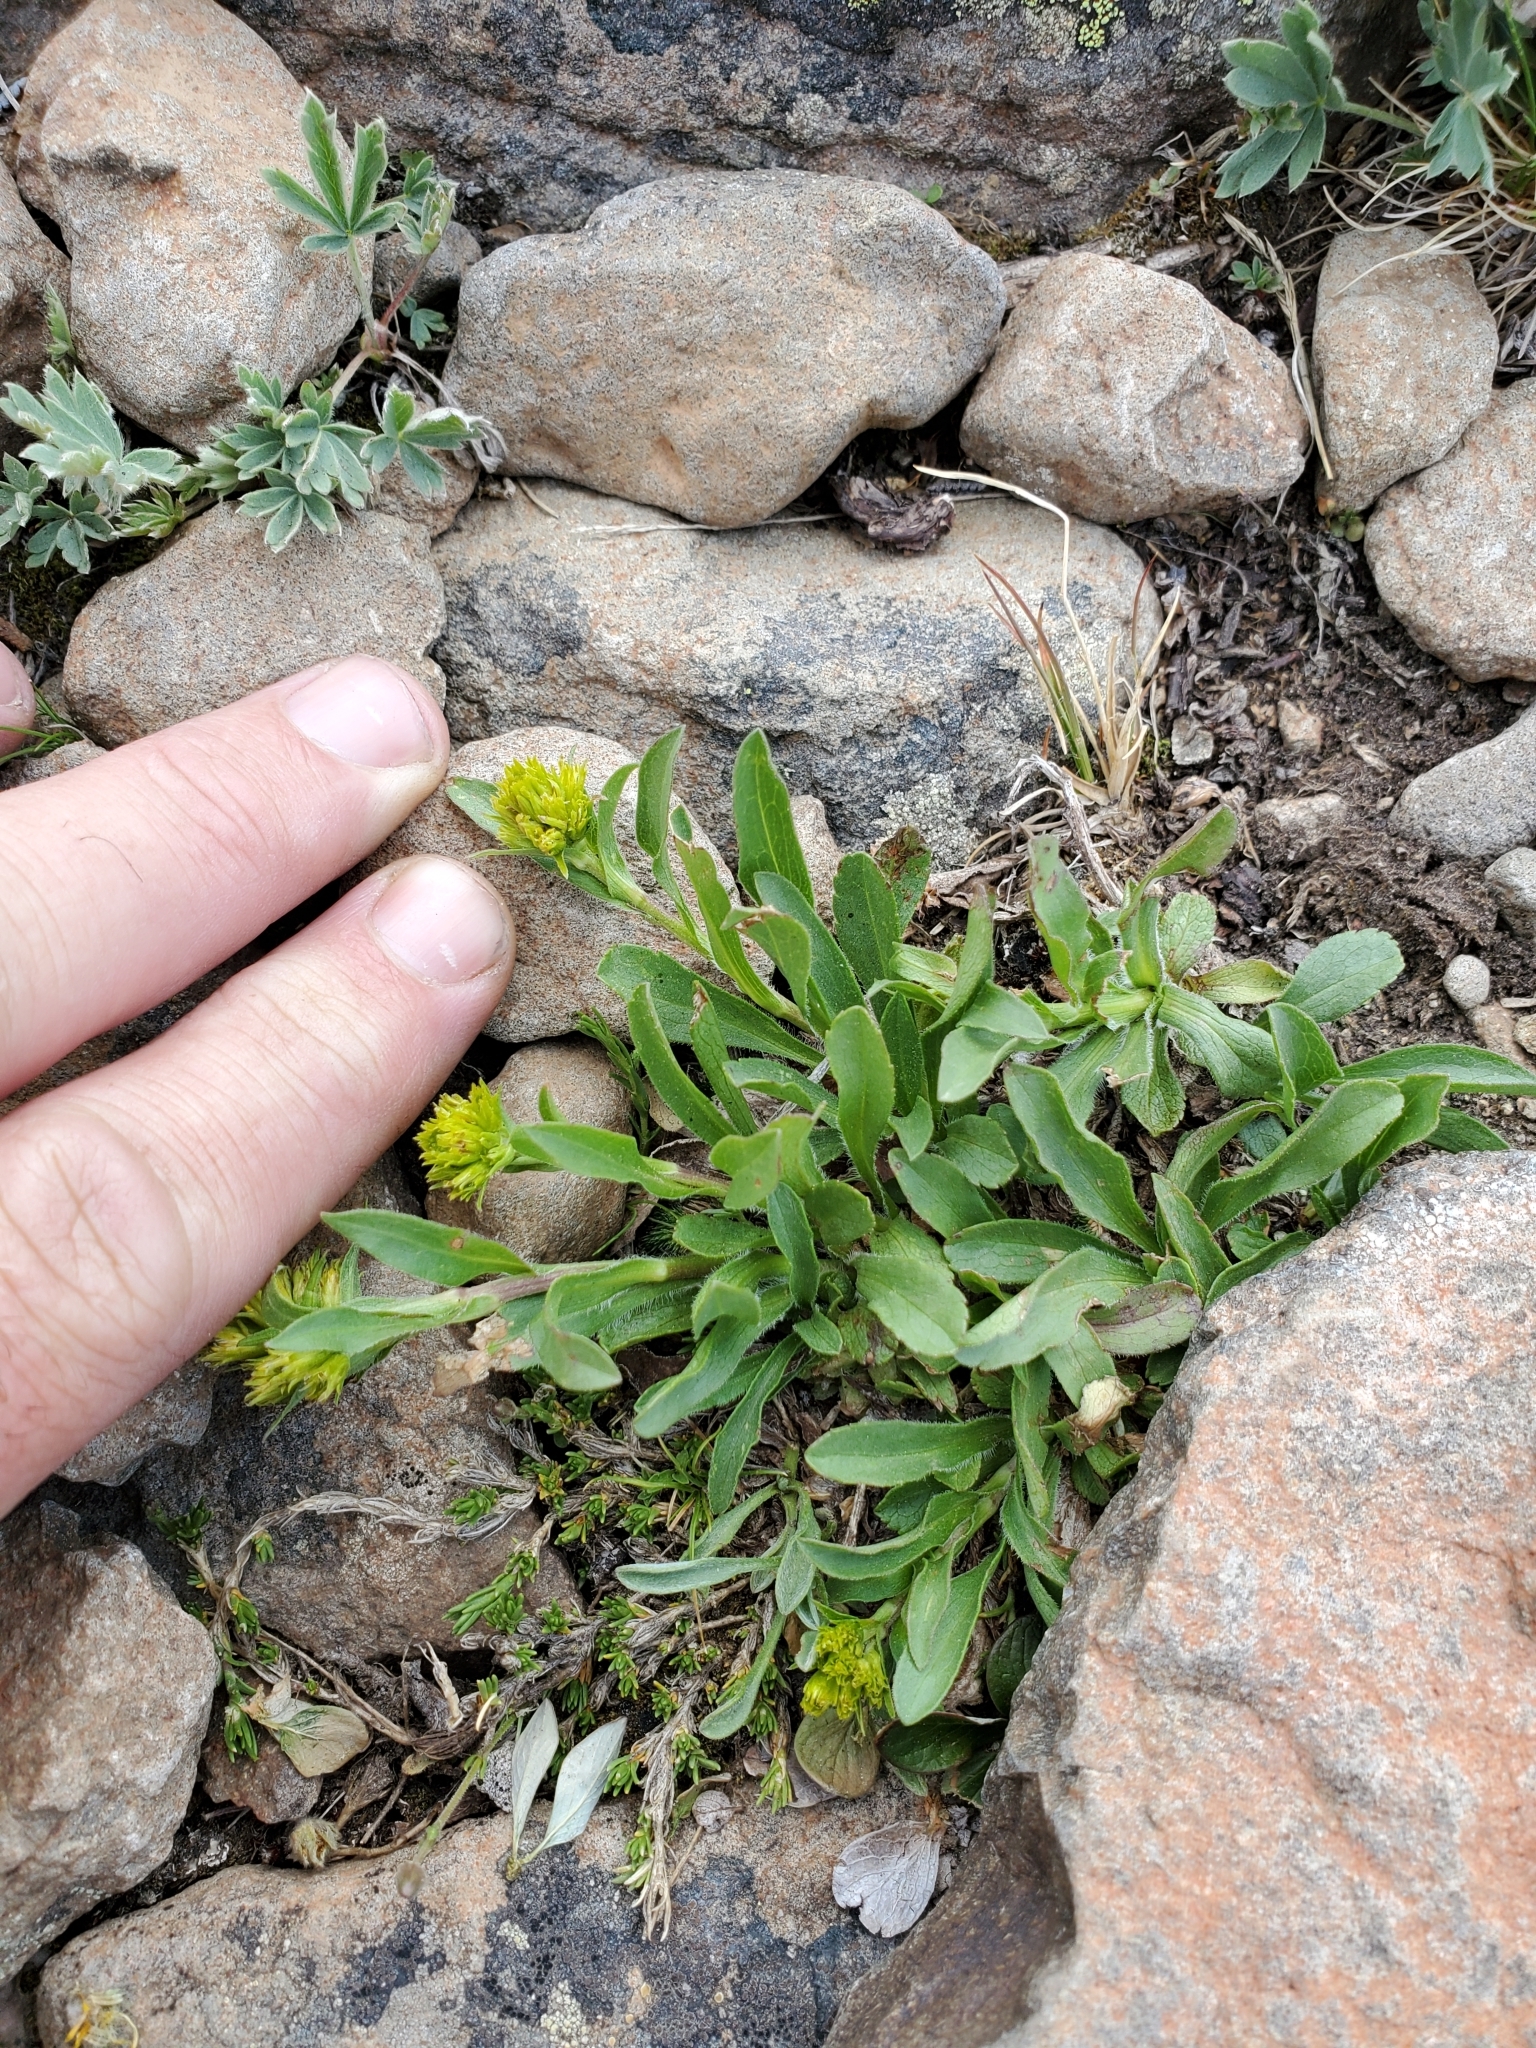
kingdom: Plantae
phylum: Tracheophyta
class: Magnoliopsida
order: Asterales
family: Asteraceae
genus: Solidago
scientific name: Solidago multiradiata
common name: Northern goldenrod
